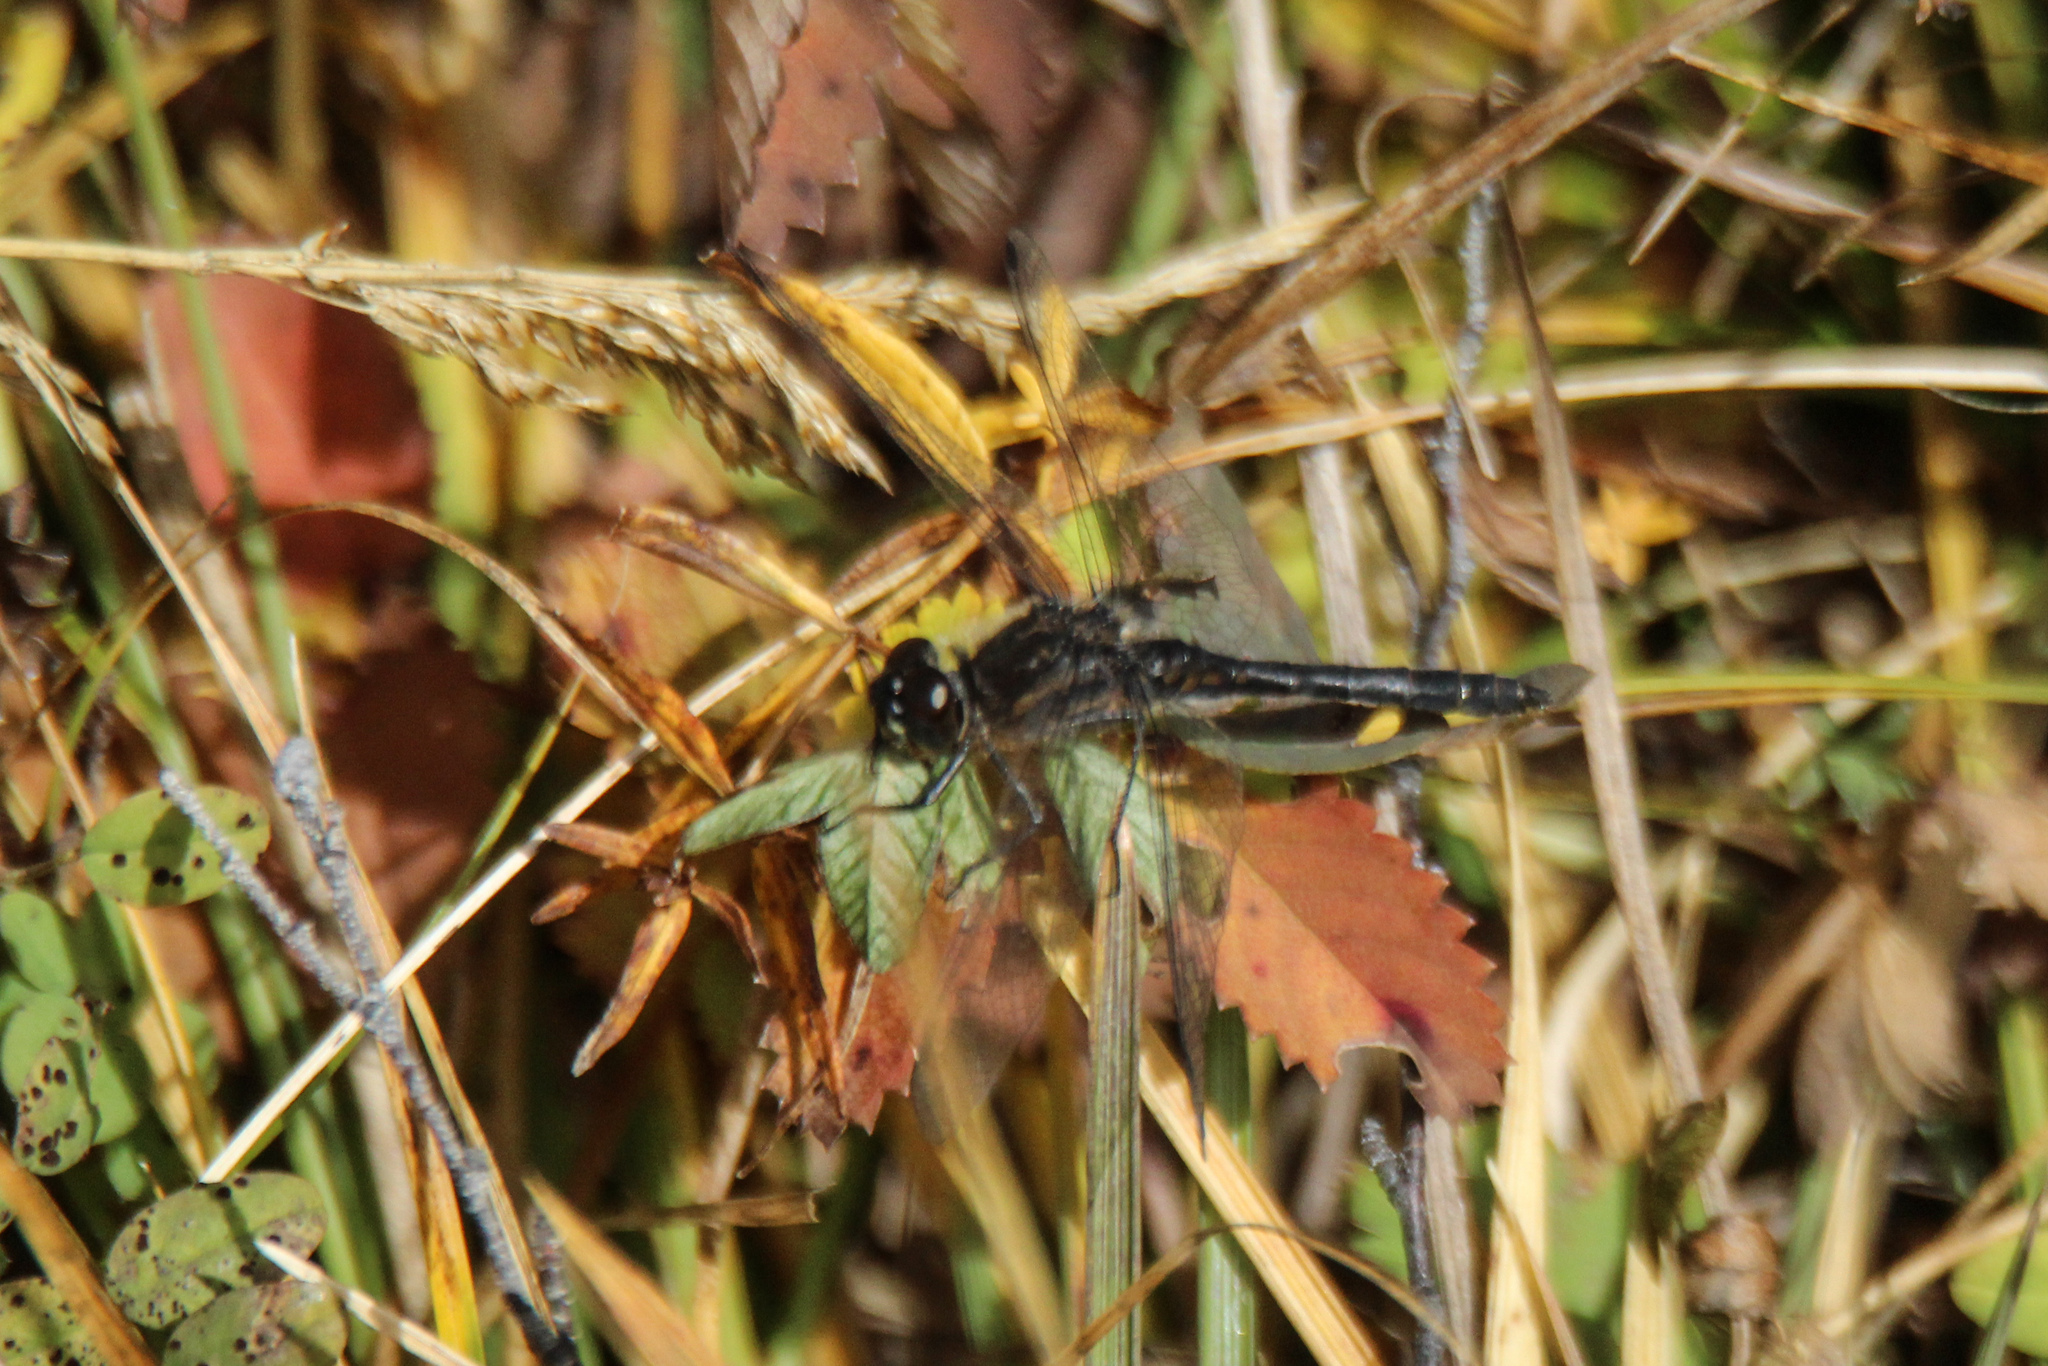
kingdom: Animalia
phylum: Arthropoda
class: Insecta
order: Odonata
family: Libellulidae
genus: Sympetrum
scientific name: Sympetrum danae
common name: Black darter
